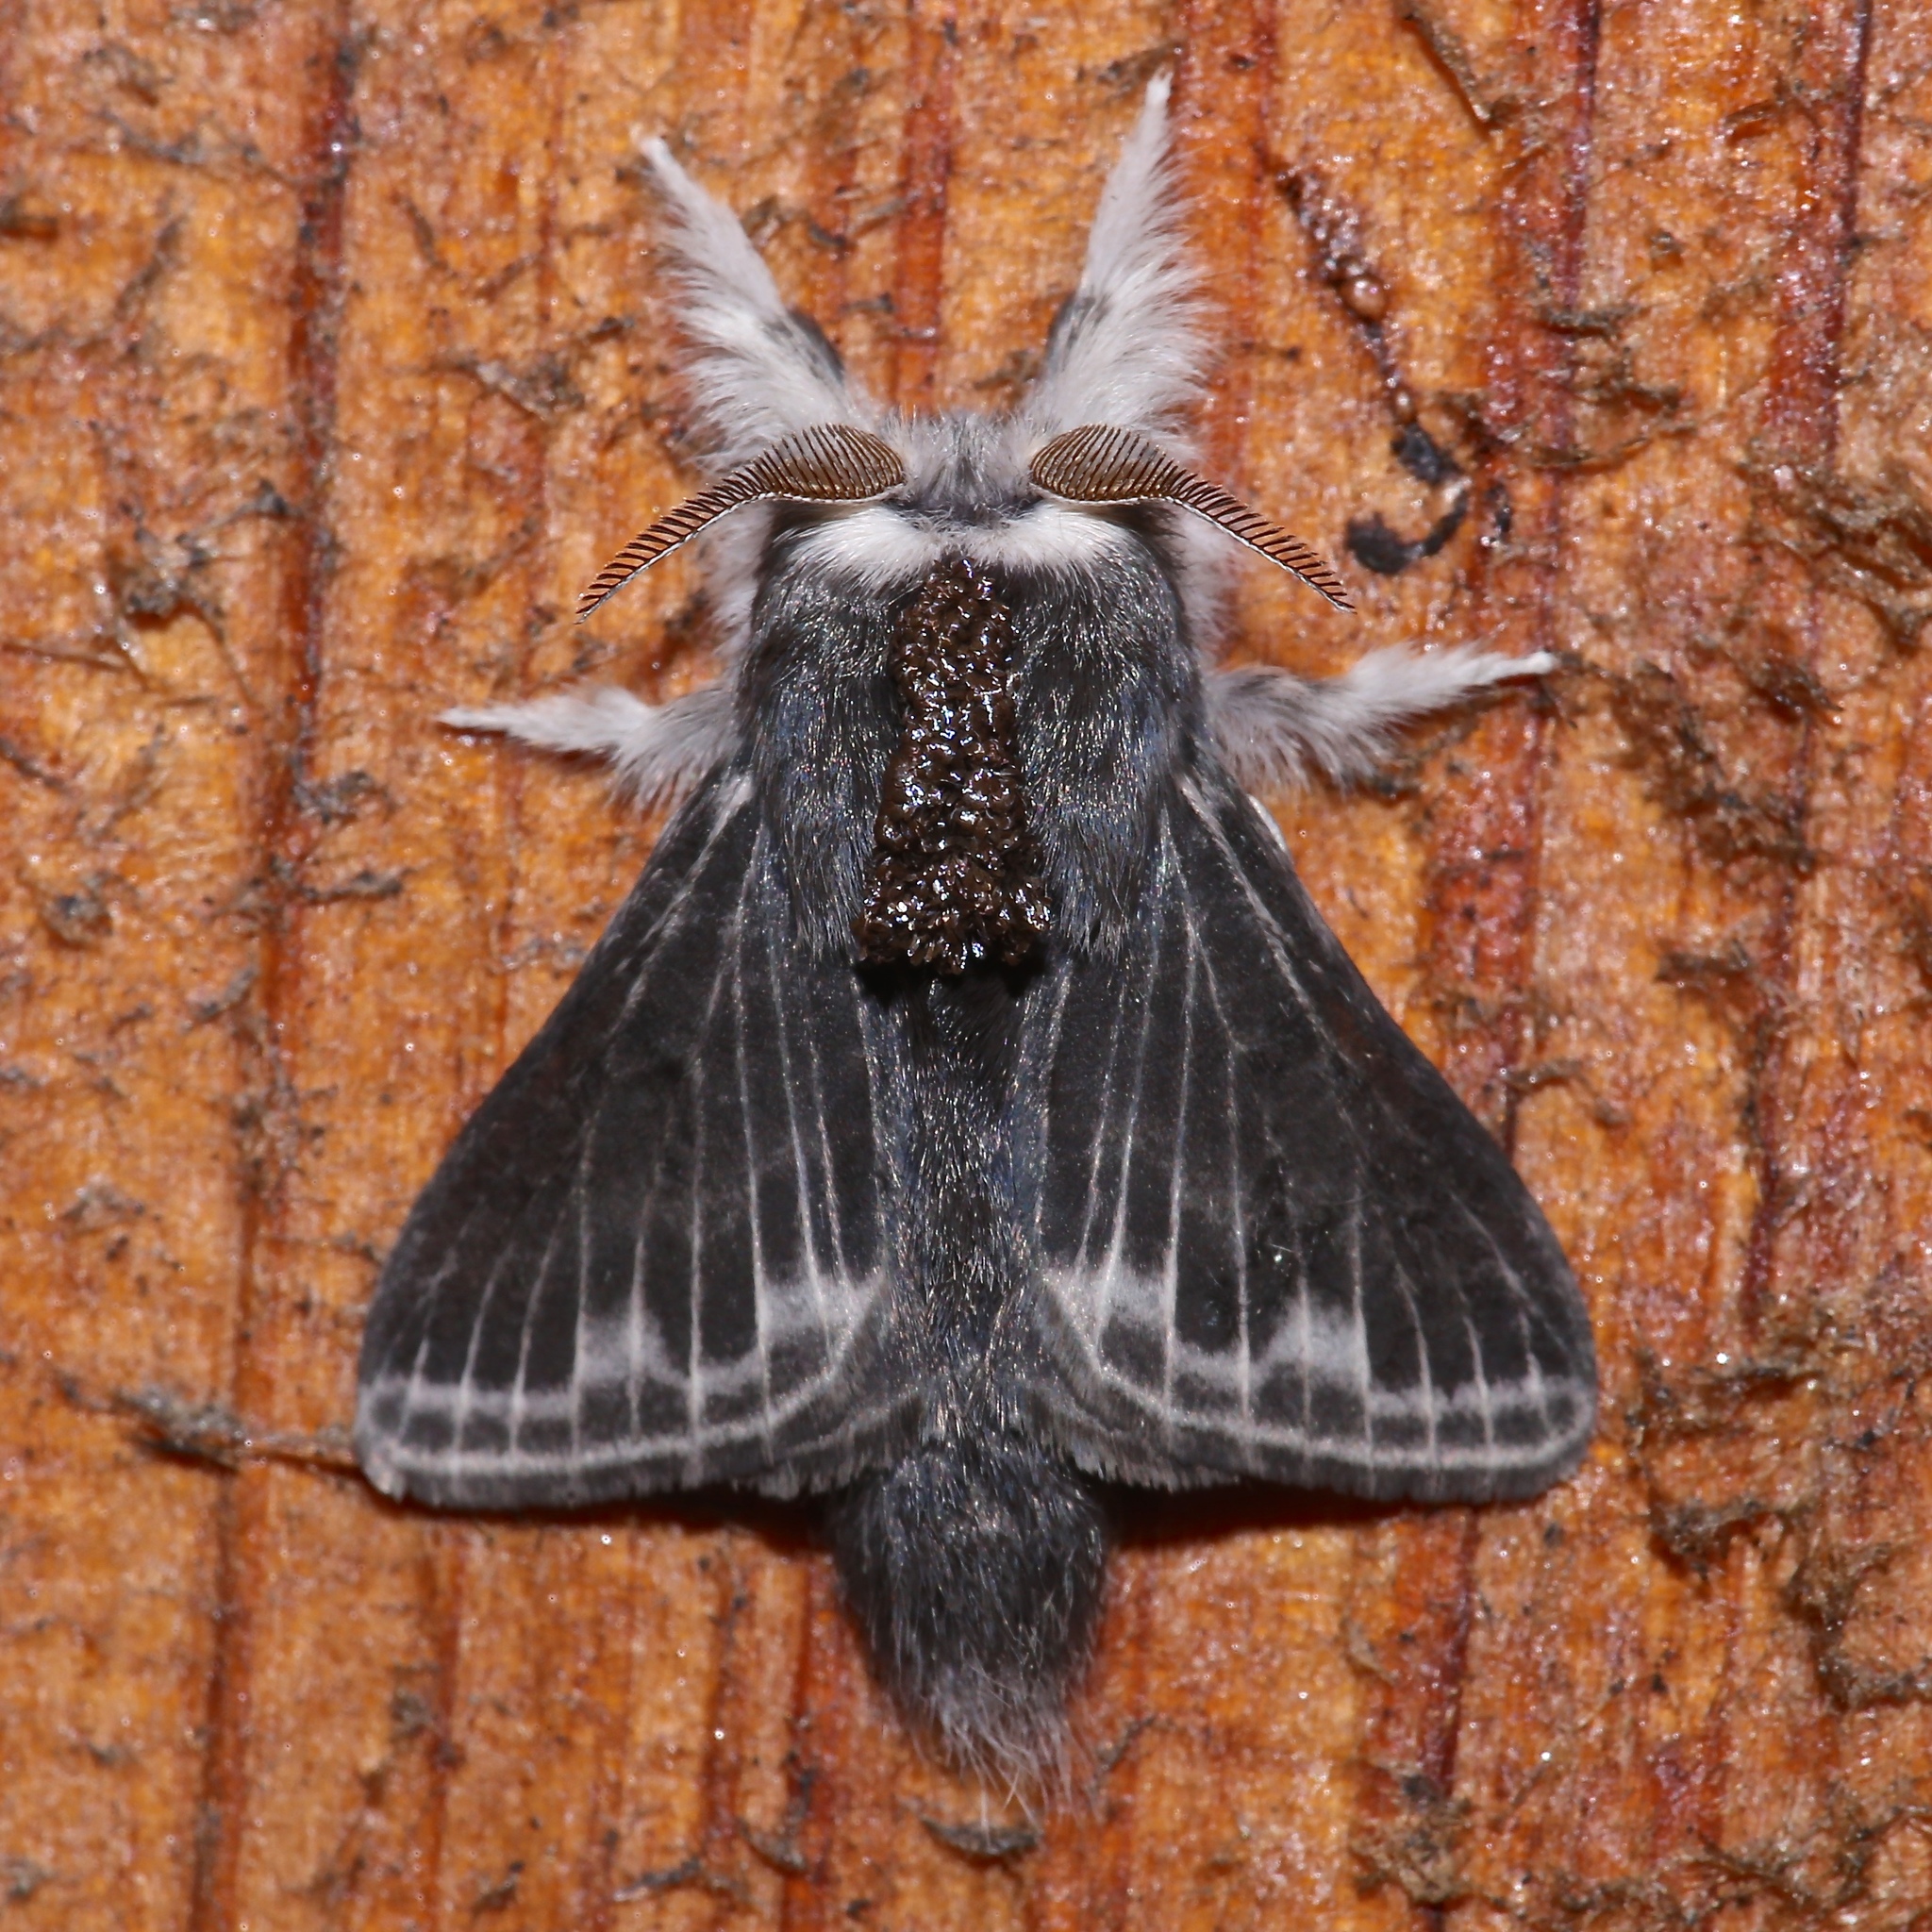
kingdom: Animalia
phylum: Arthropoda
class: Insecta
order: Lepidoptera
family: Lasiocampidae
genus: Tolype
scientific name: Tolype laricis
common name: Larch tolype moth
